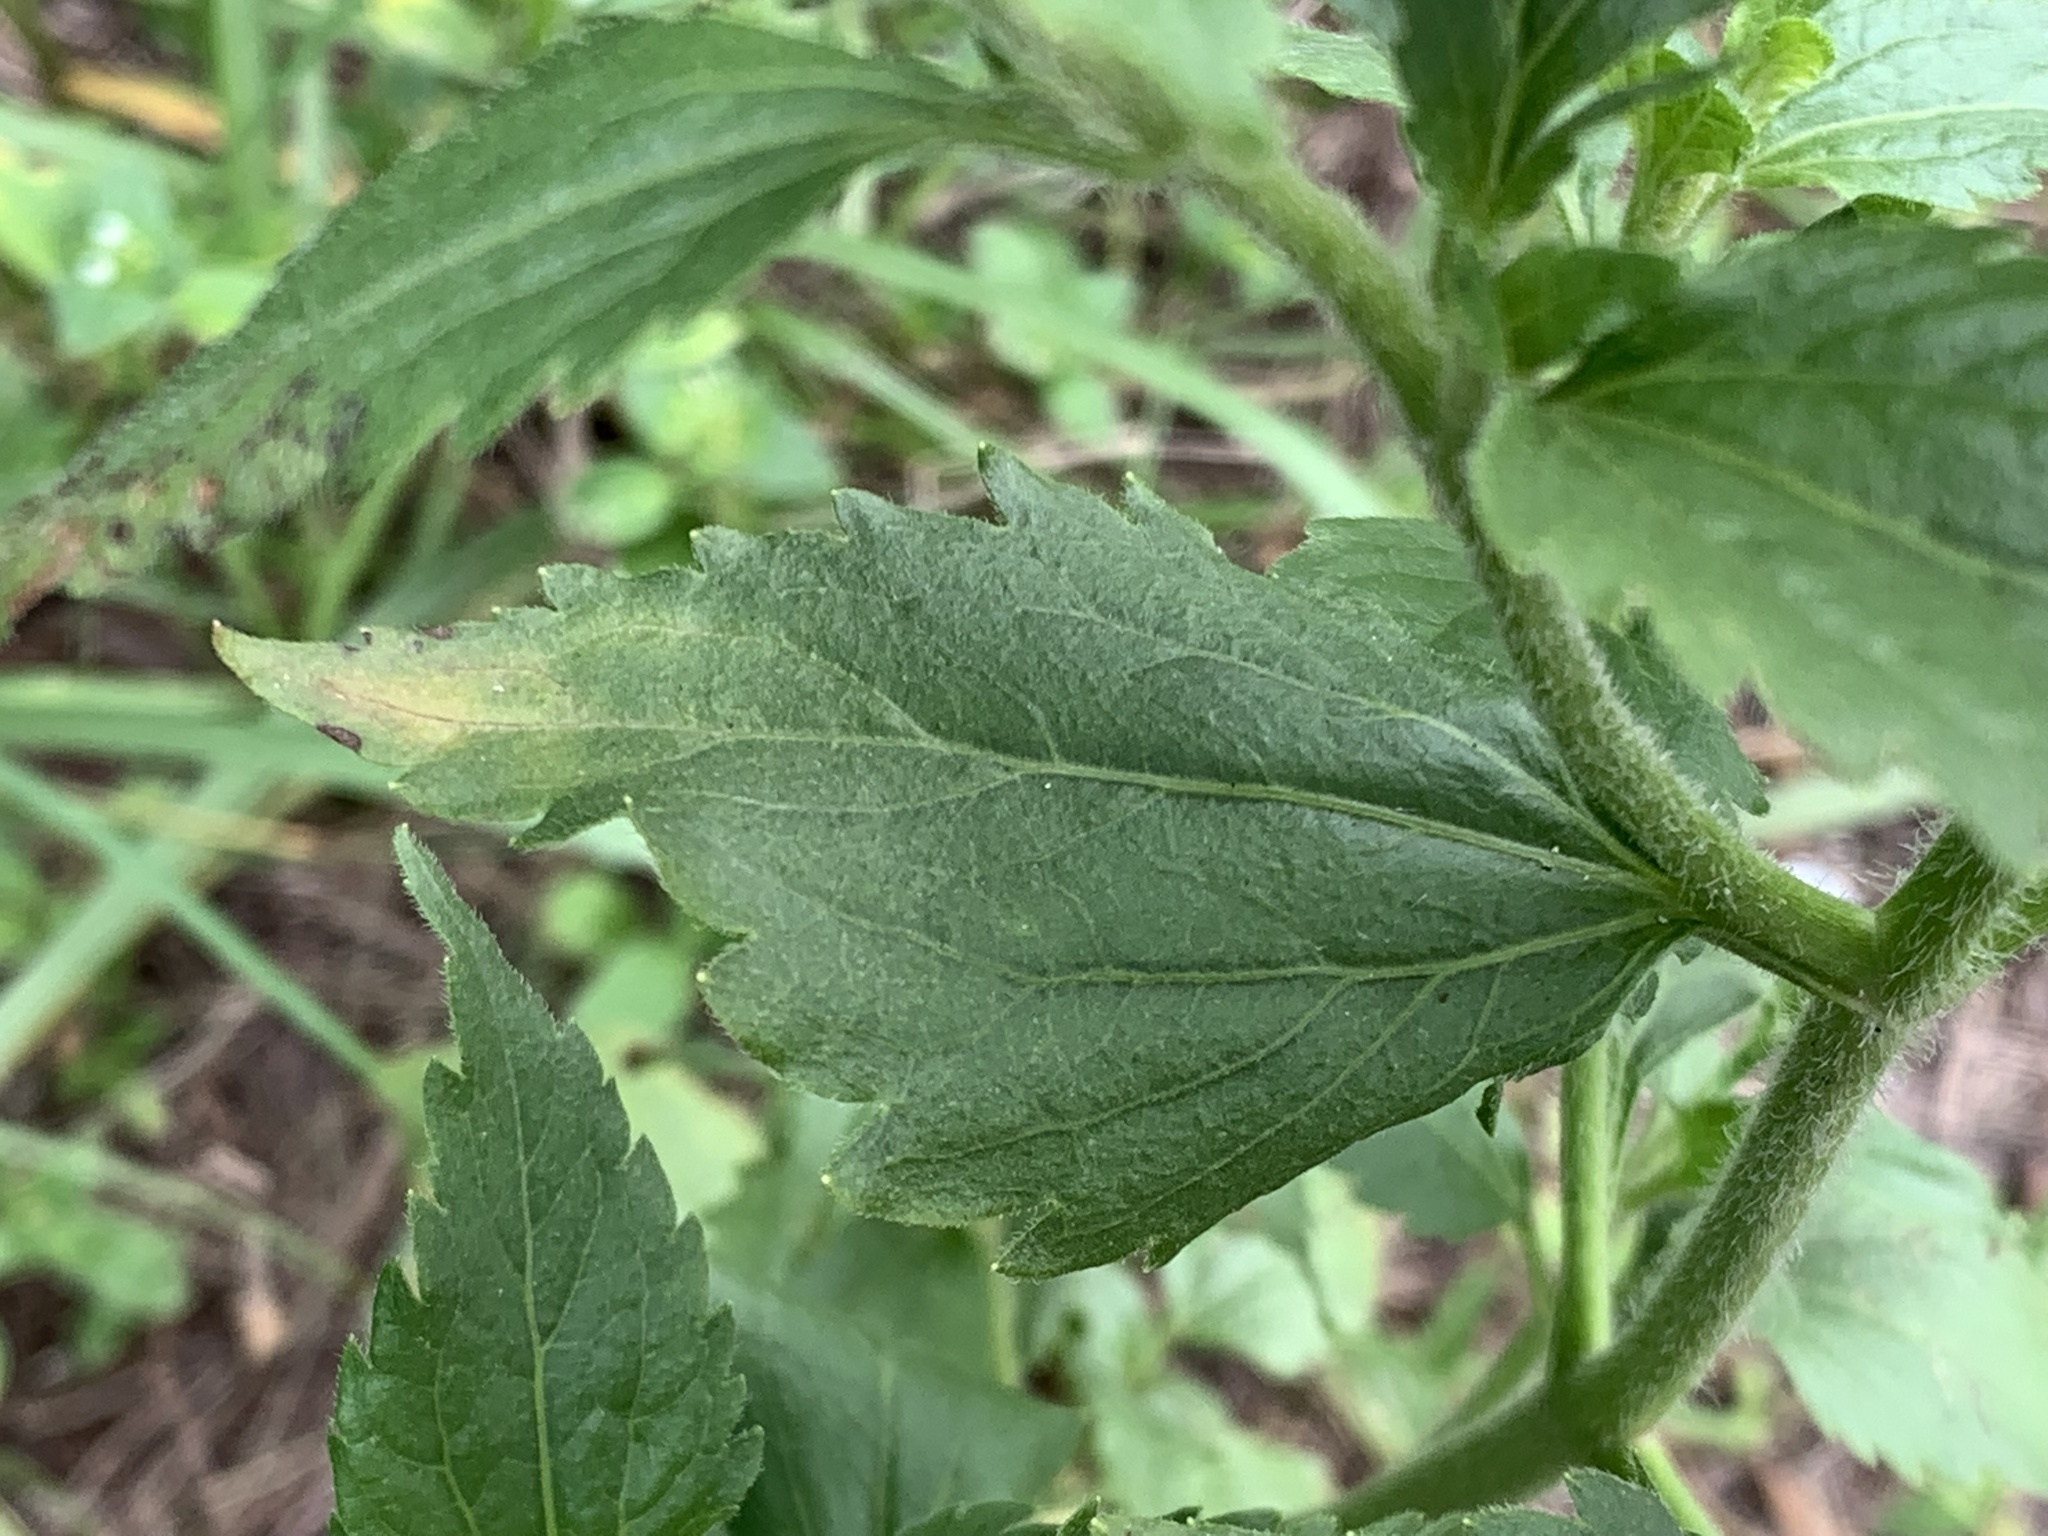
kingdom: Plantae
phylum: Tracheophyta
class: Magnoliopsida
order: Asterales
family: Asteraceae
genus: Praxelis
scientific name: Praxelis clematidea
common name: Praxelis
